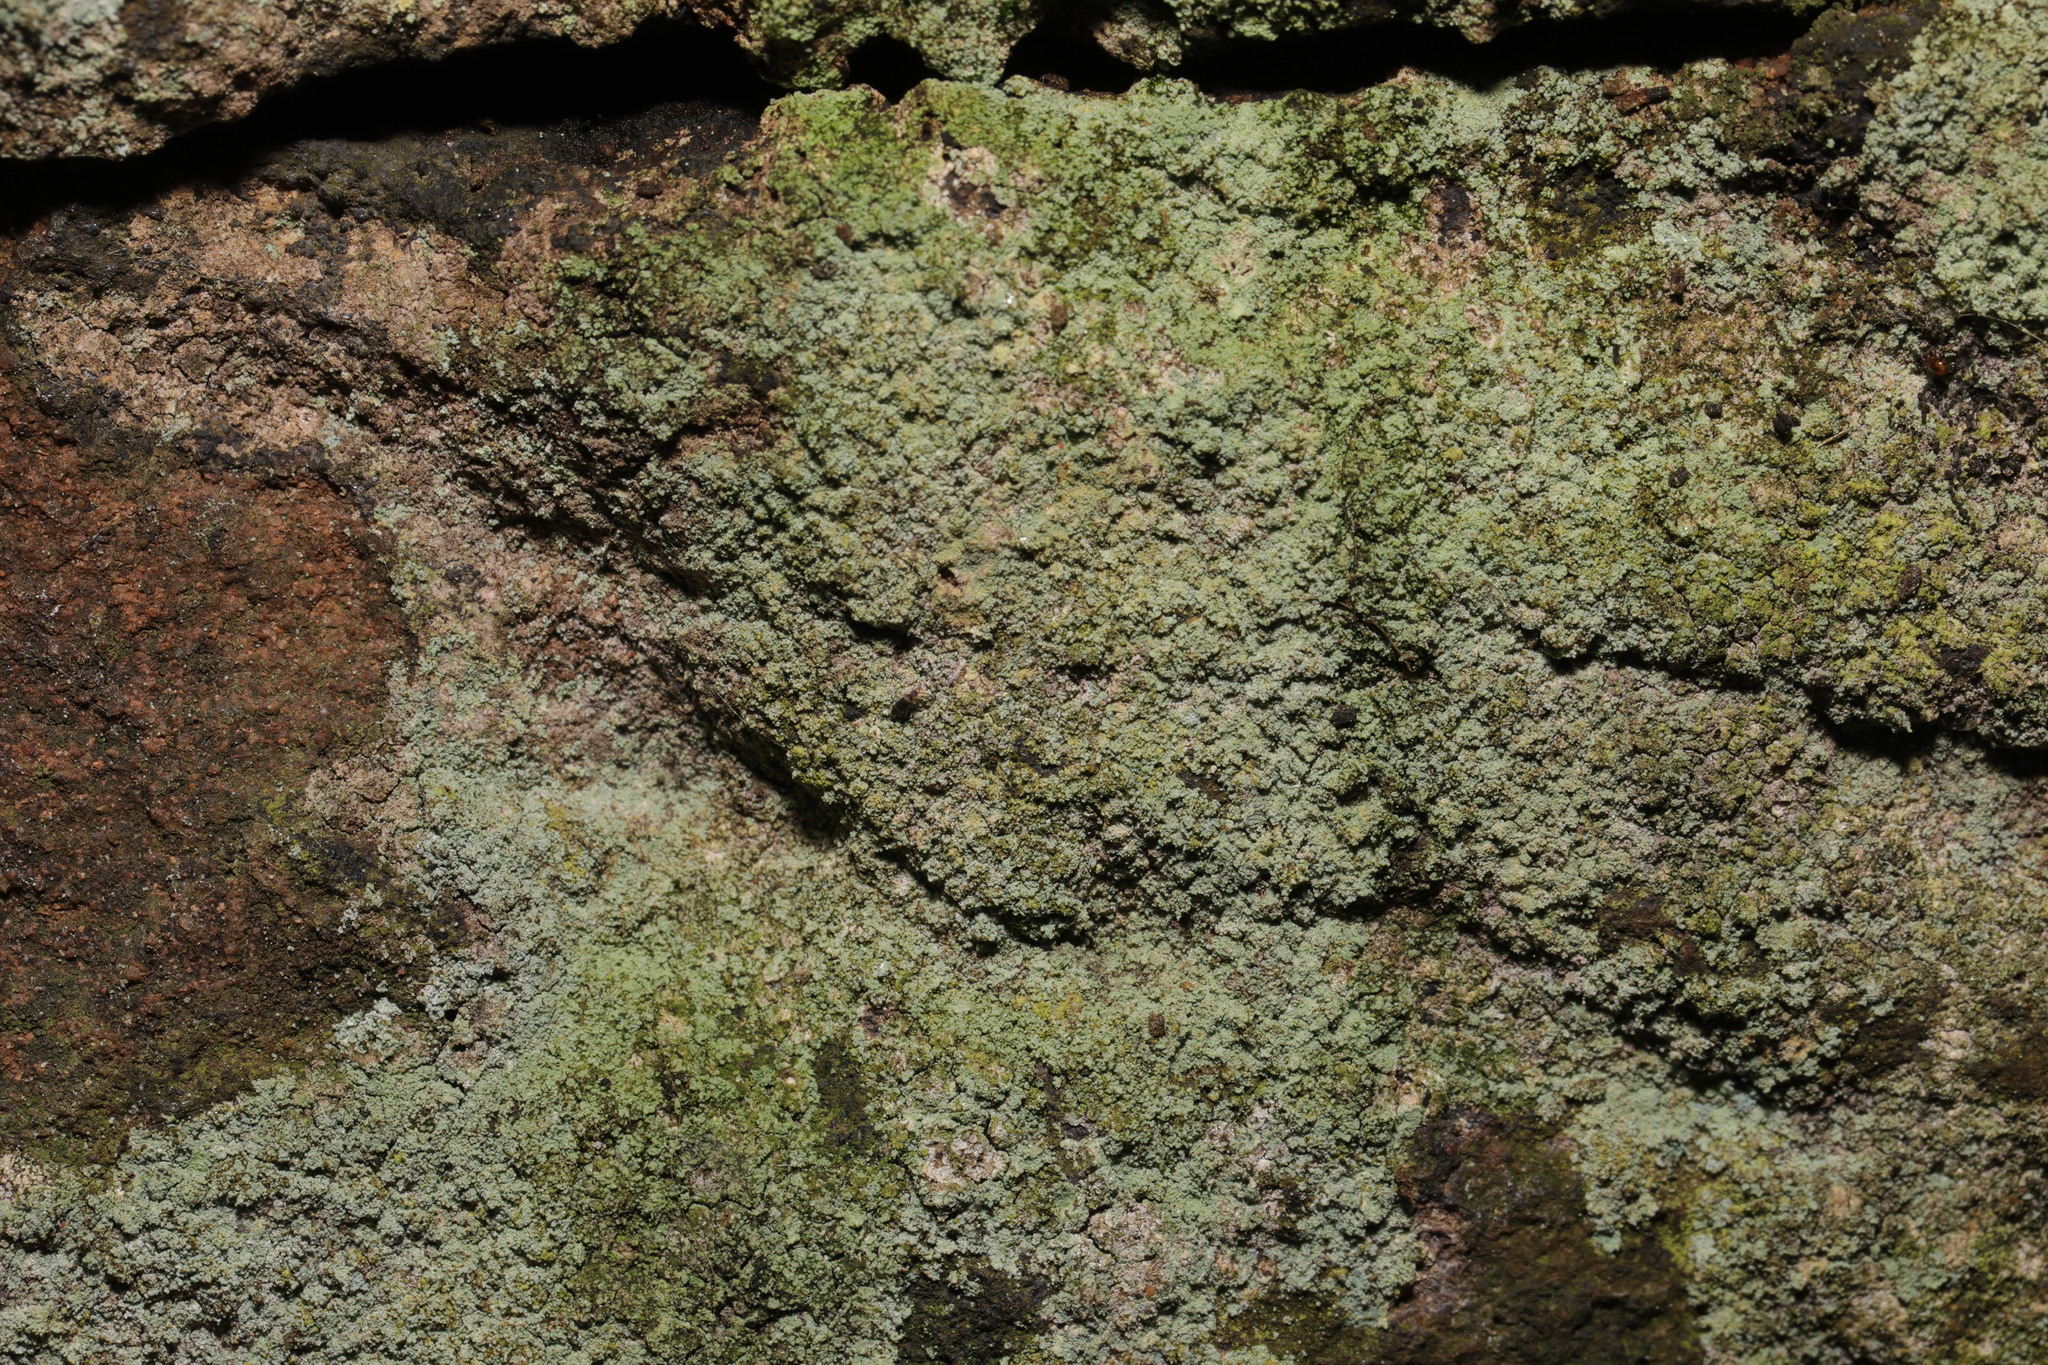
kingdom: Fungi
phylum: Ascomycota
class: Lecanoromycetes
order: Lecanorales
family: Stereocaulaceae
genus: Lepraria
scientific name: Lepraria
